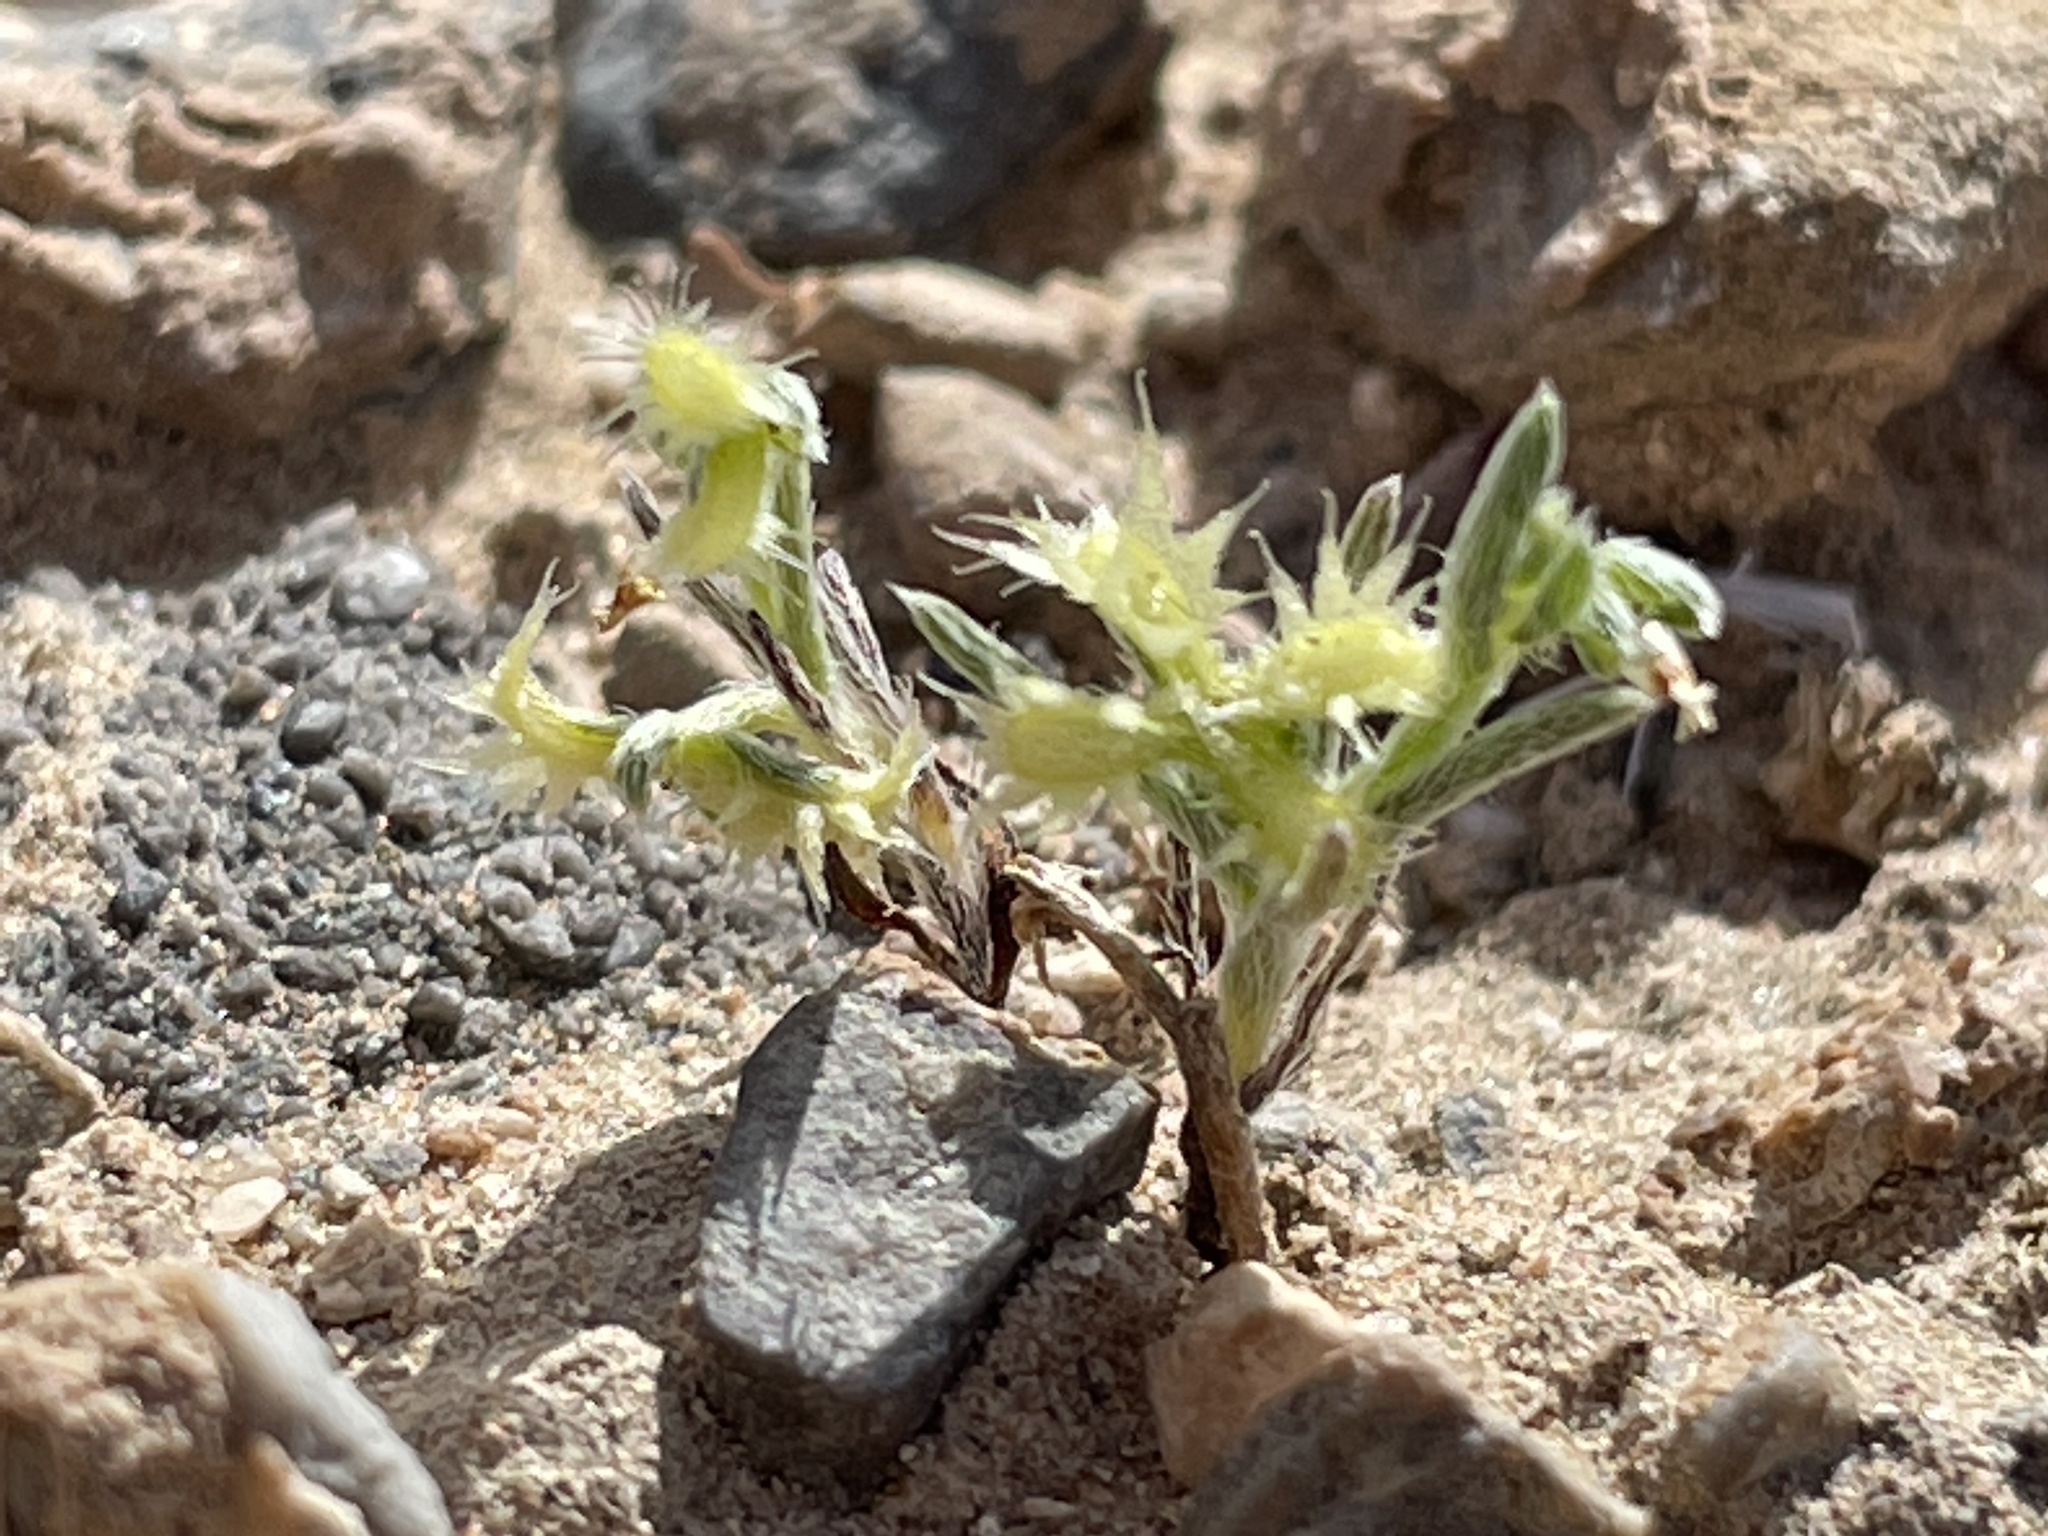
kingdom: Plantae
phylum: Tracheophyta
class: Magnoliopsida
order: Boraginales
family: Boraginaceae
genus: Pectocarya
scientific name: Pectocarya platycarpa
